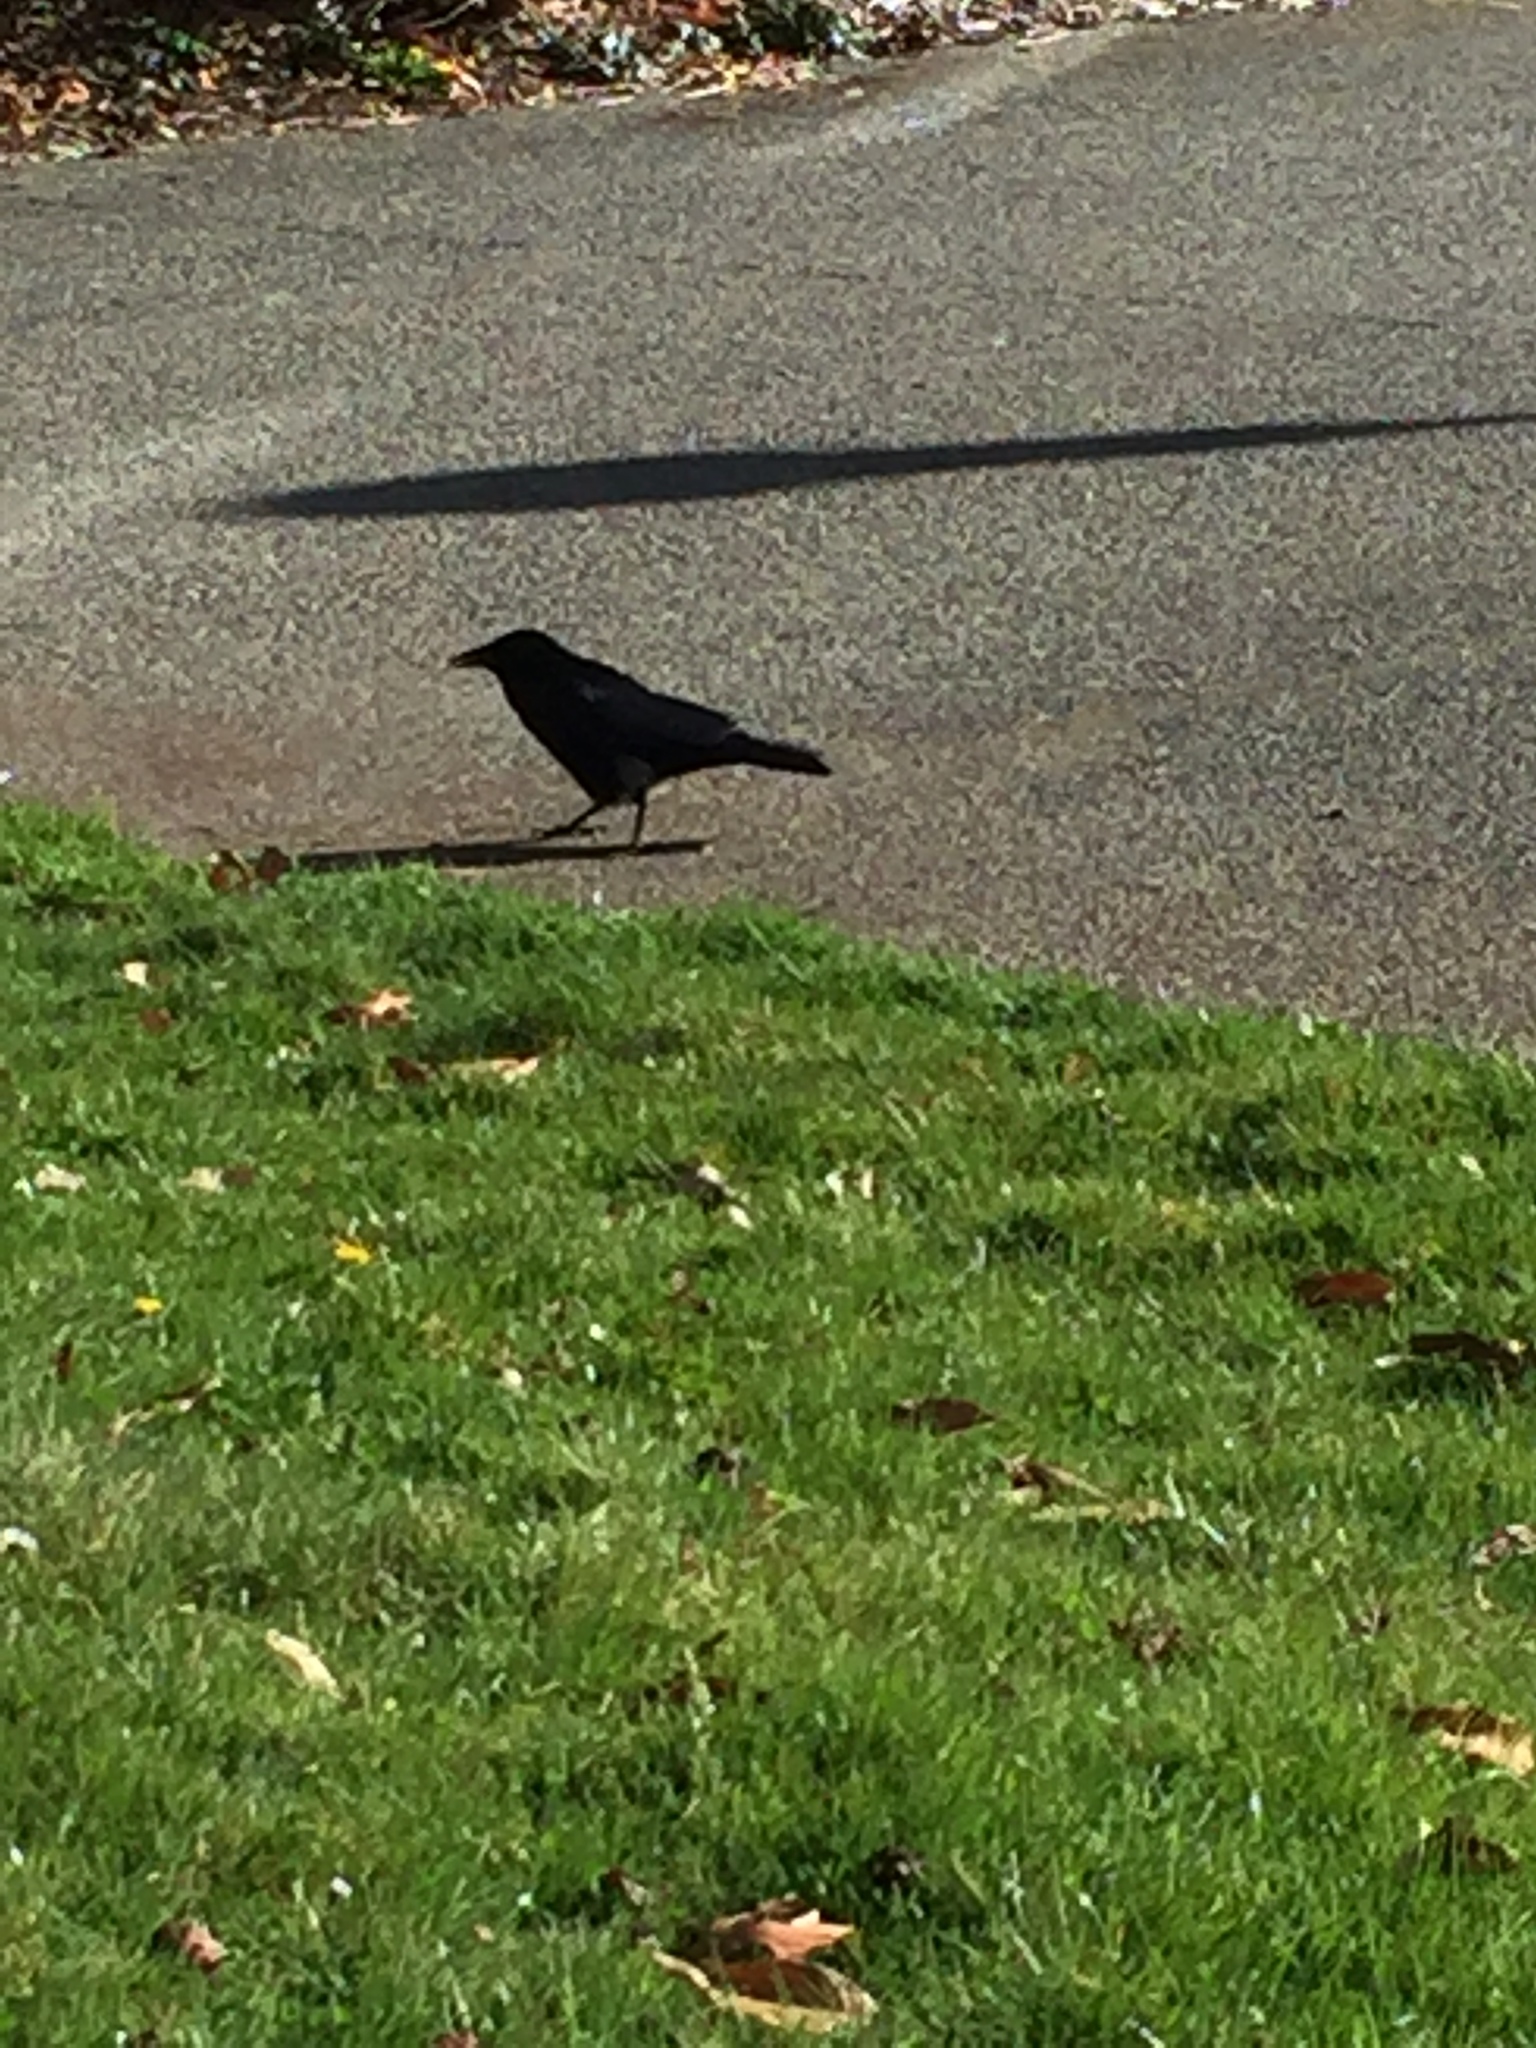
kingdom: Animalia
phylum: Chordata
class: Aves
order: Passeriformes
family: Corvidae
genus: Corvus
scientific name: Corvus brachyrhynchos
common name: American crow
